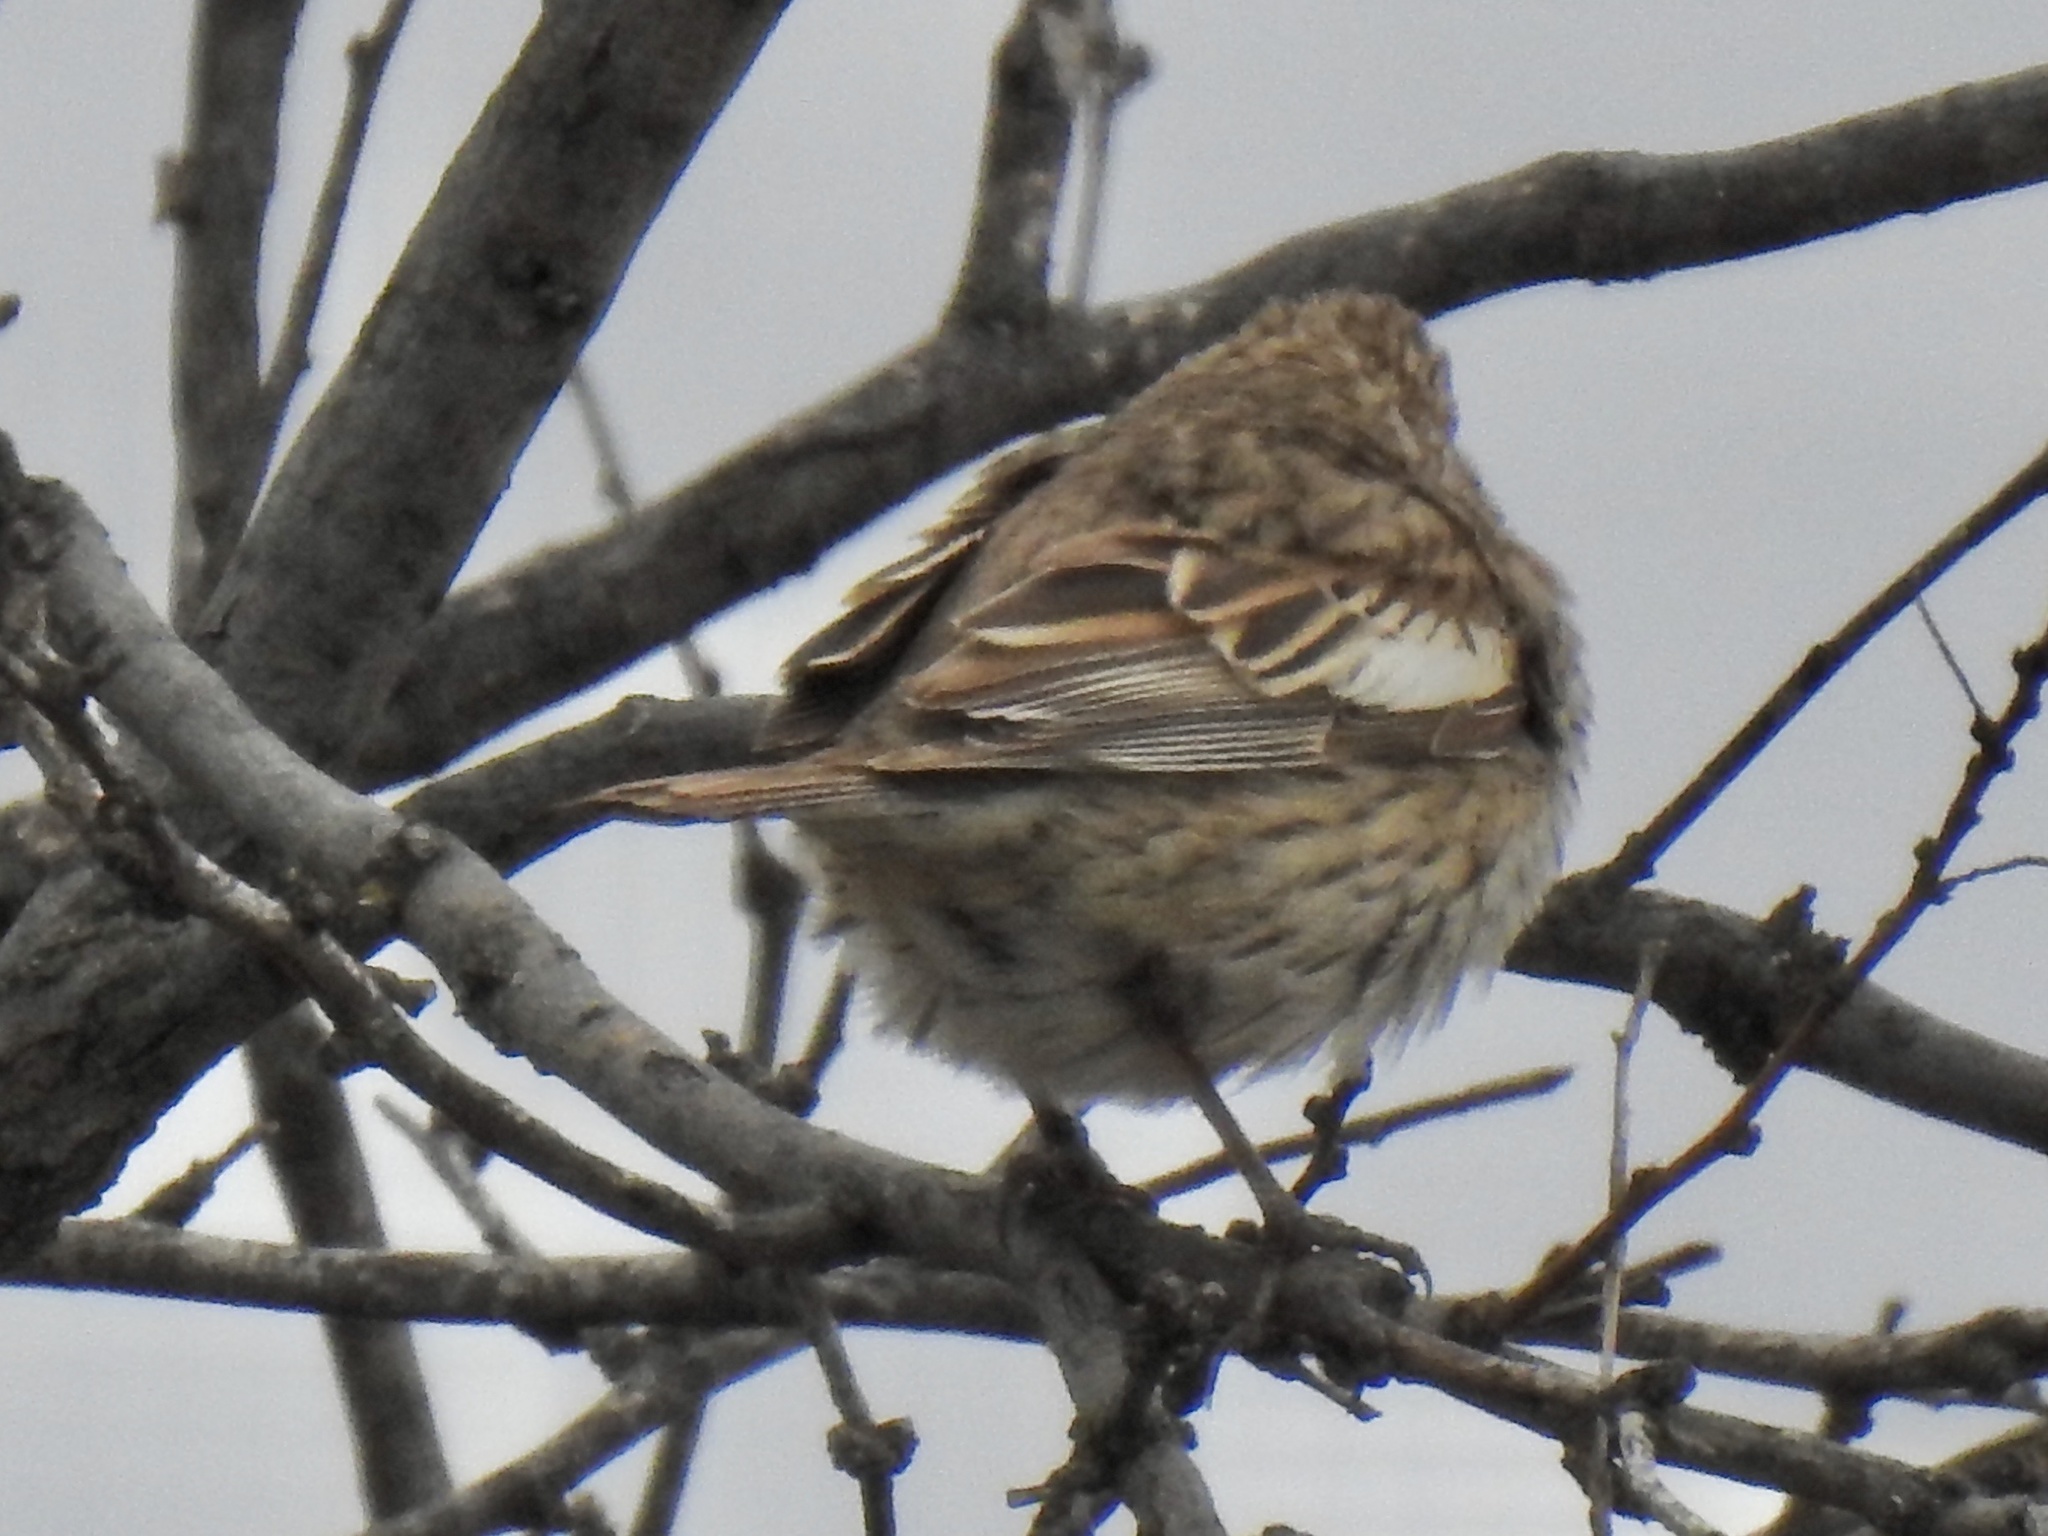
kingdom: Animalia
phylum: Chordata
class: Aves
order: Passeriformes
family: Passerellidae
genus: Calamospiza
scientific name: Calamospiza melanocorys
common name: Lark bunting
